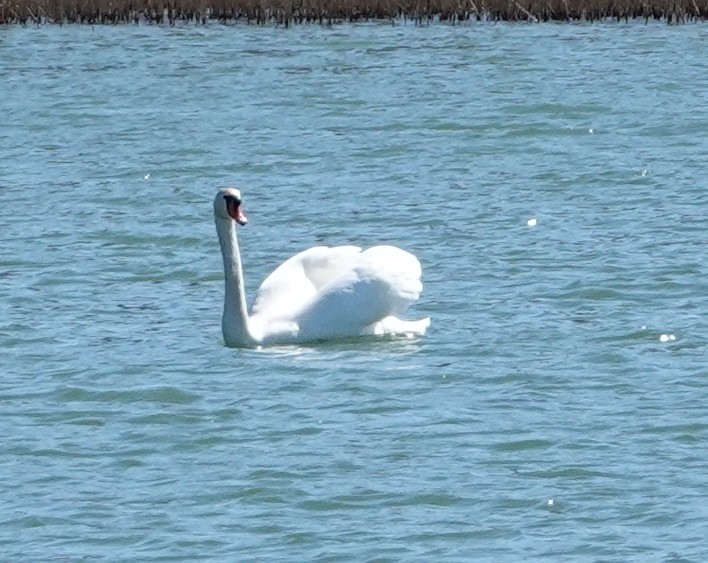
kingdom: Animalia
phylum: Chordata
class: Aves
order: Anseriformes
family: Anatidae
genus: Cygnus
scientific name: Cygnus olor
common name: Mute swan
